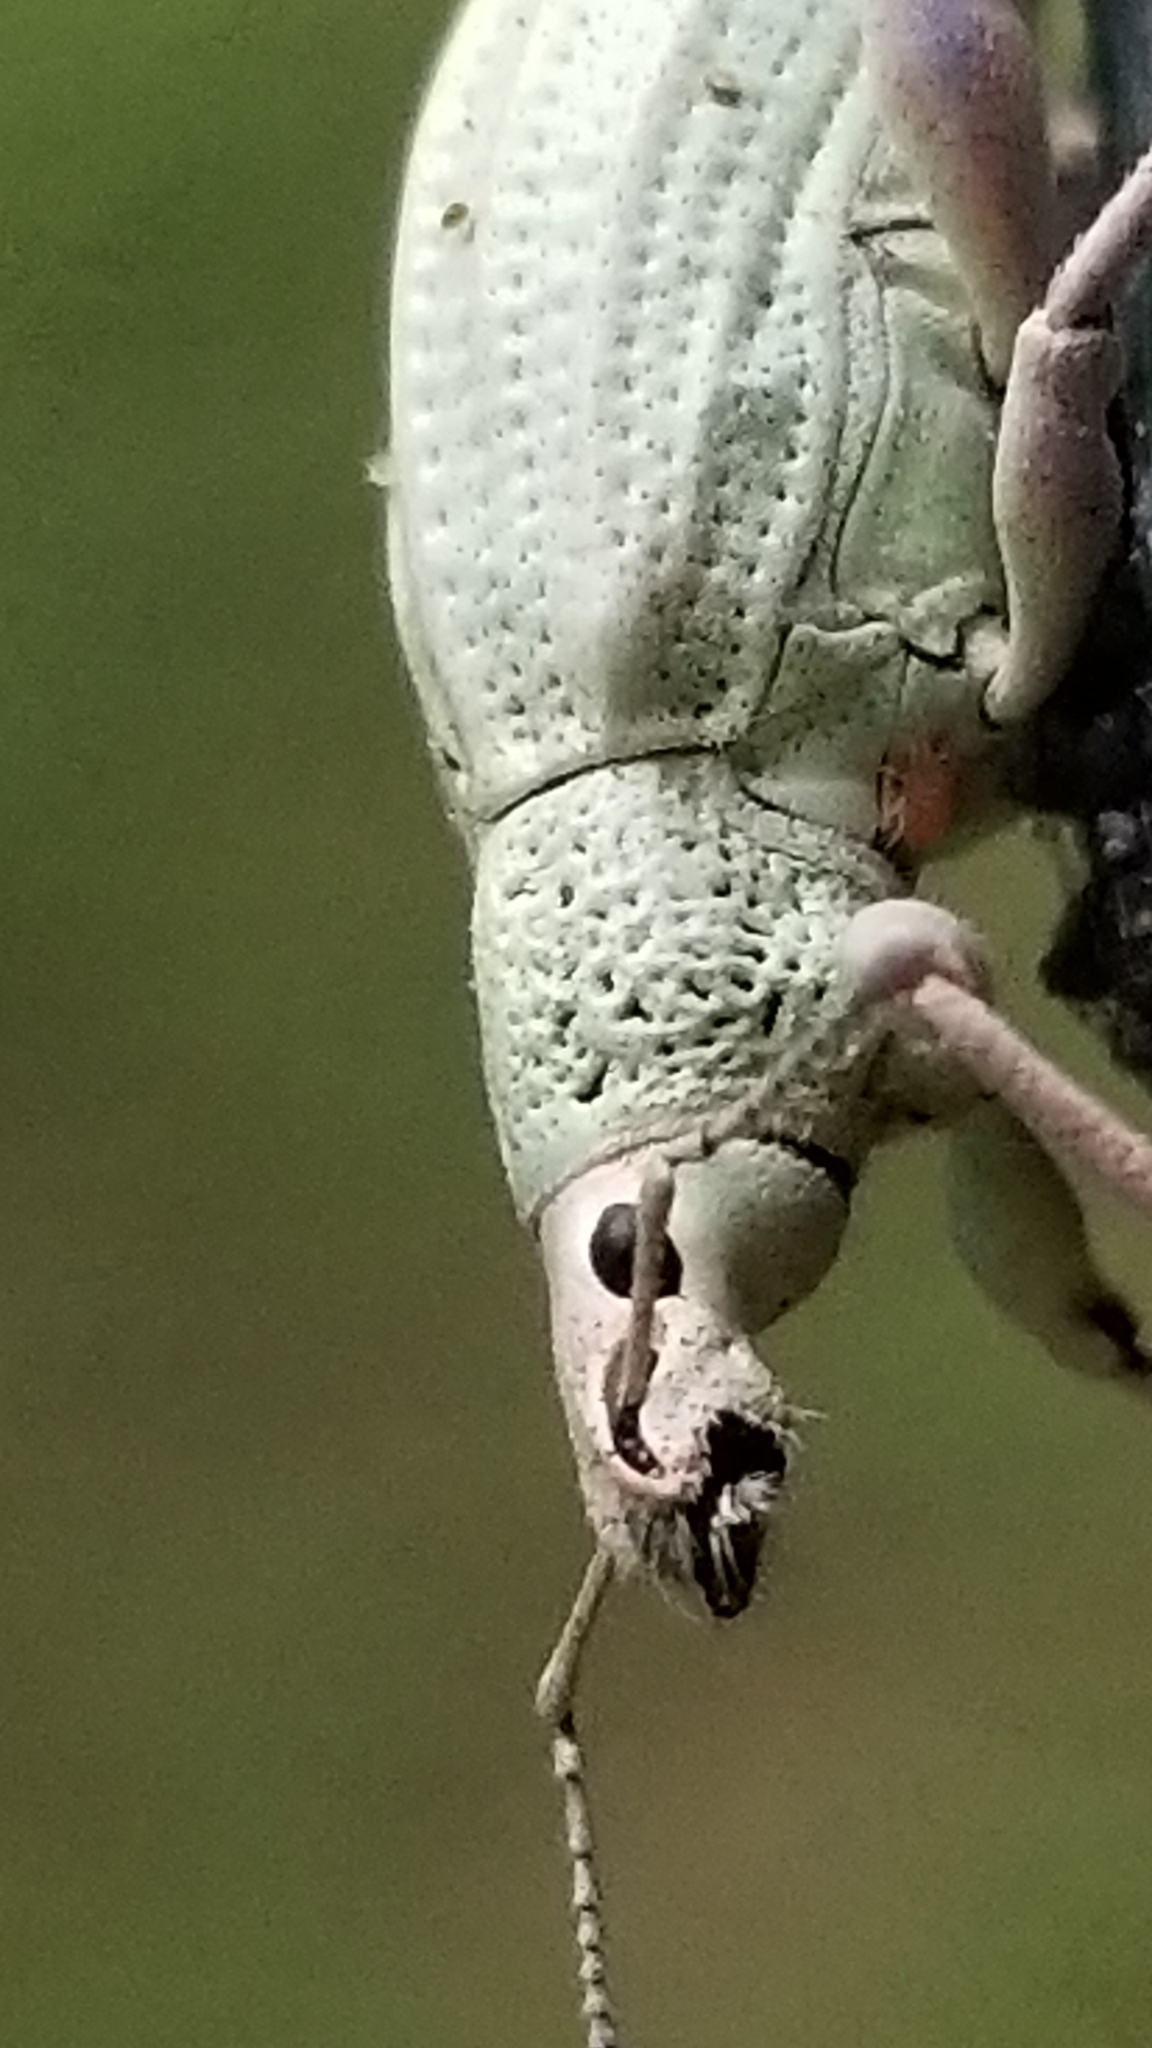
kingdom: Animalia
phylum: Arthropoda
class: Insecta
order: Coleoptera
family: Curculionidae
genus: Compsus
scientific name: Compsus auricephalus
